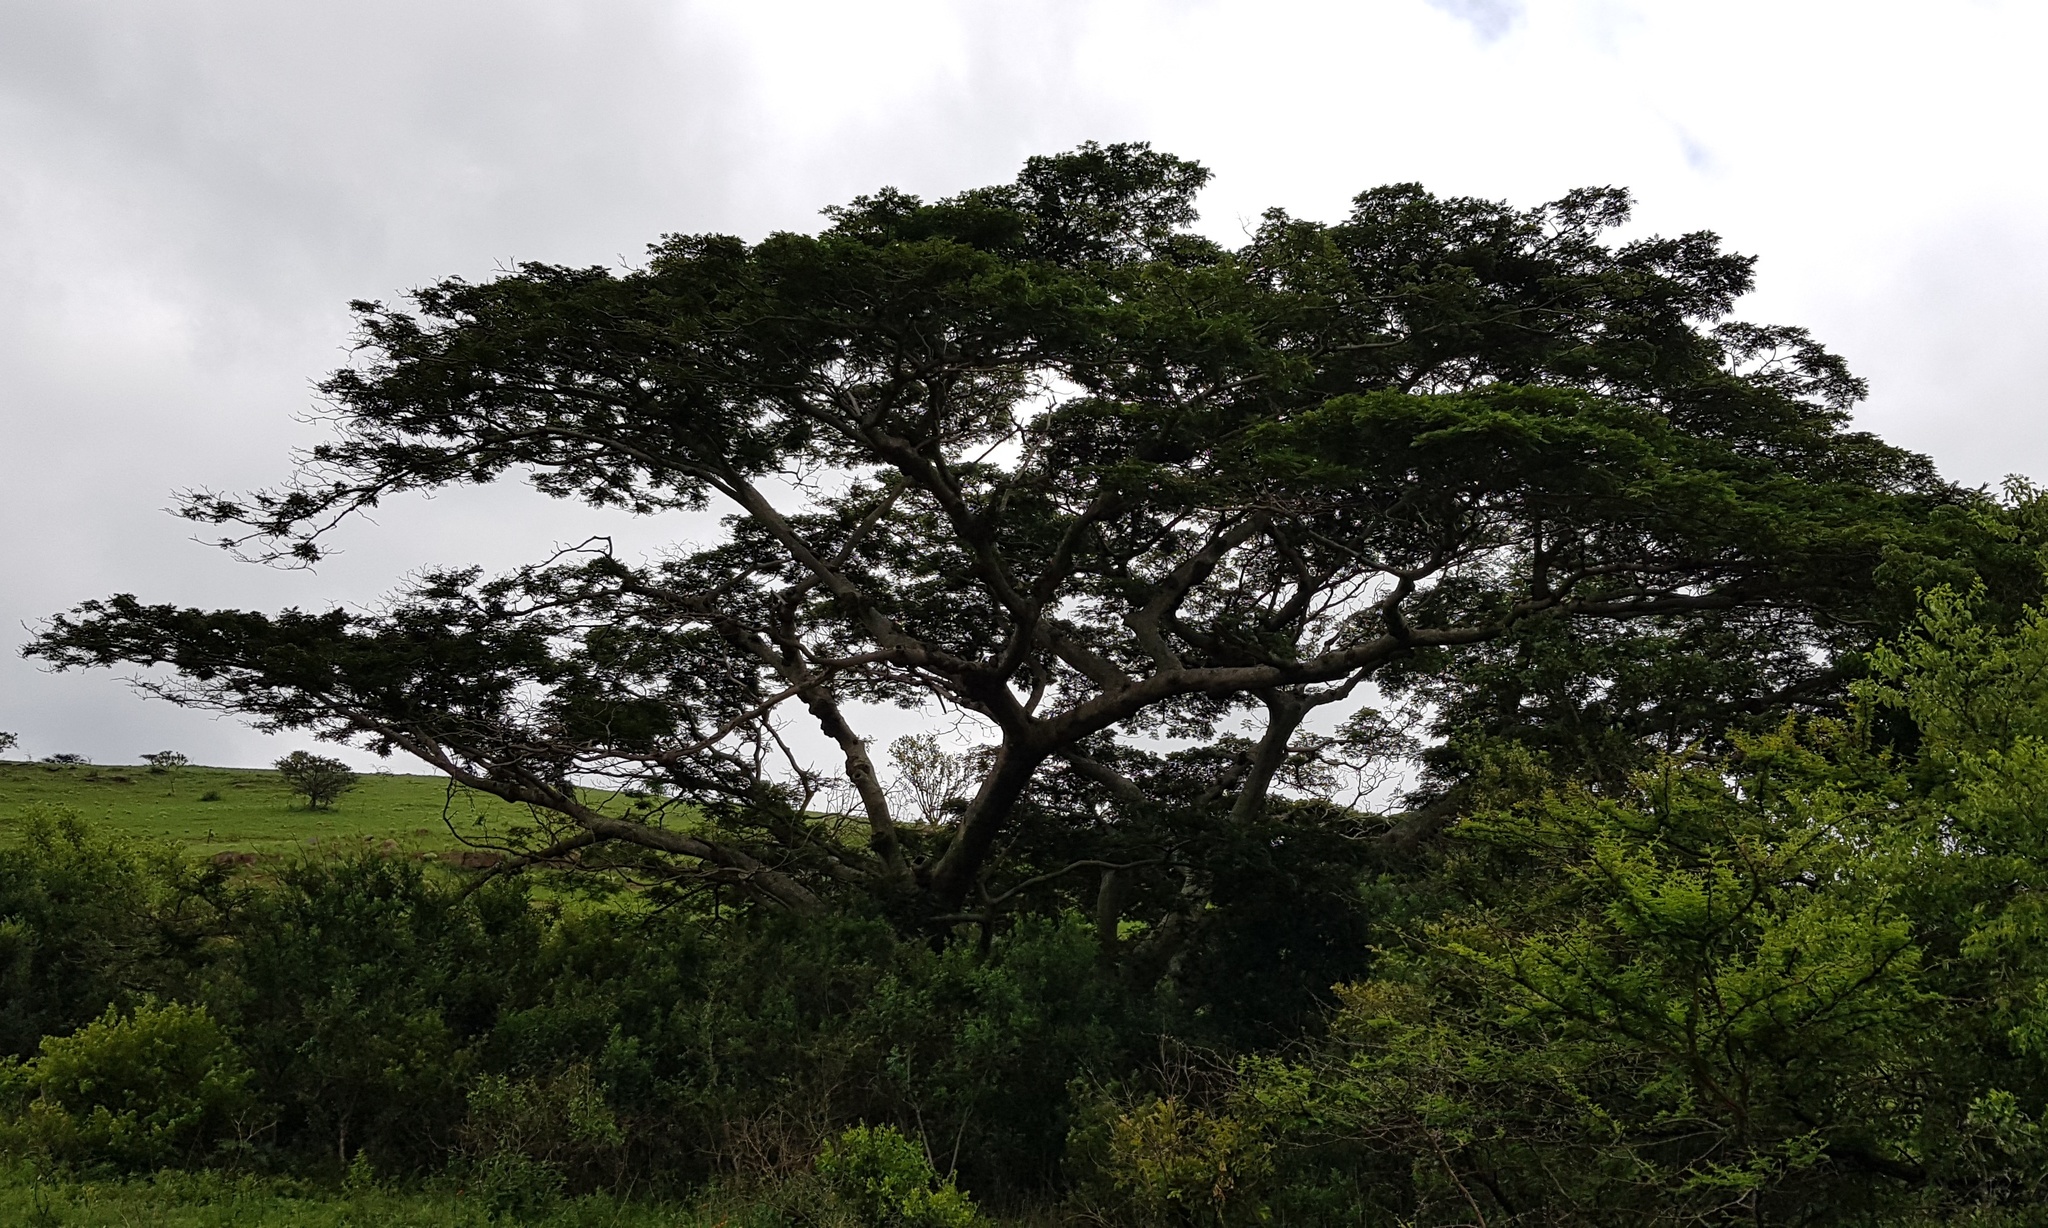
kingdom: Plantae
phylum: Tracheophyta
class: Magnoliopsida
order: Fabales
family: Fabaceae
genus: Albizia
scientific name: Albizia adianthifolia
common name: West african albizia
